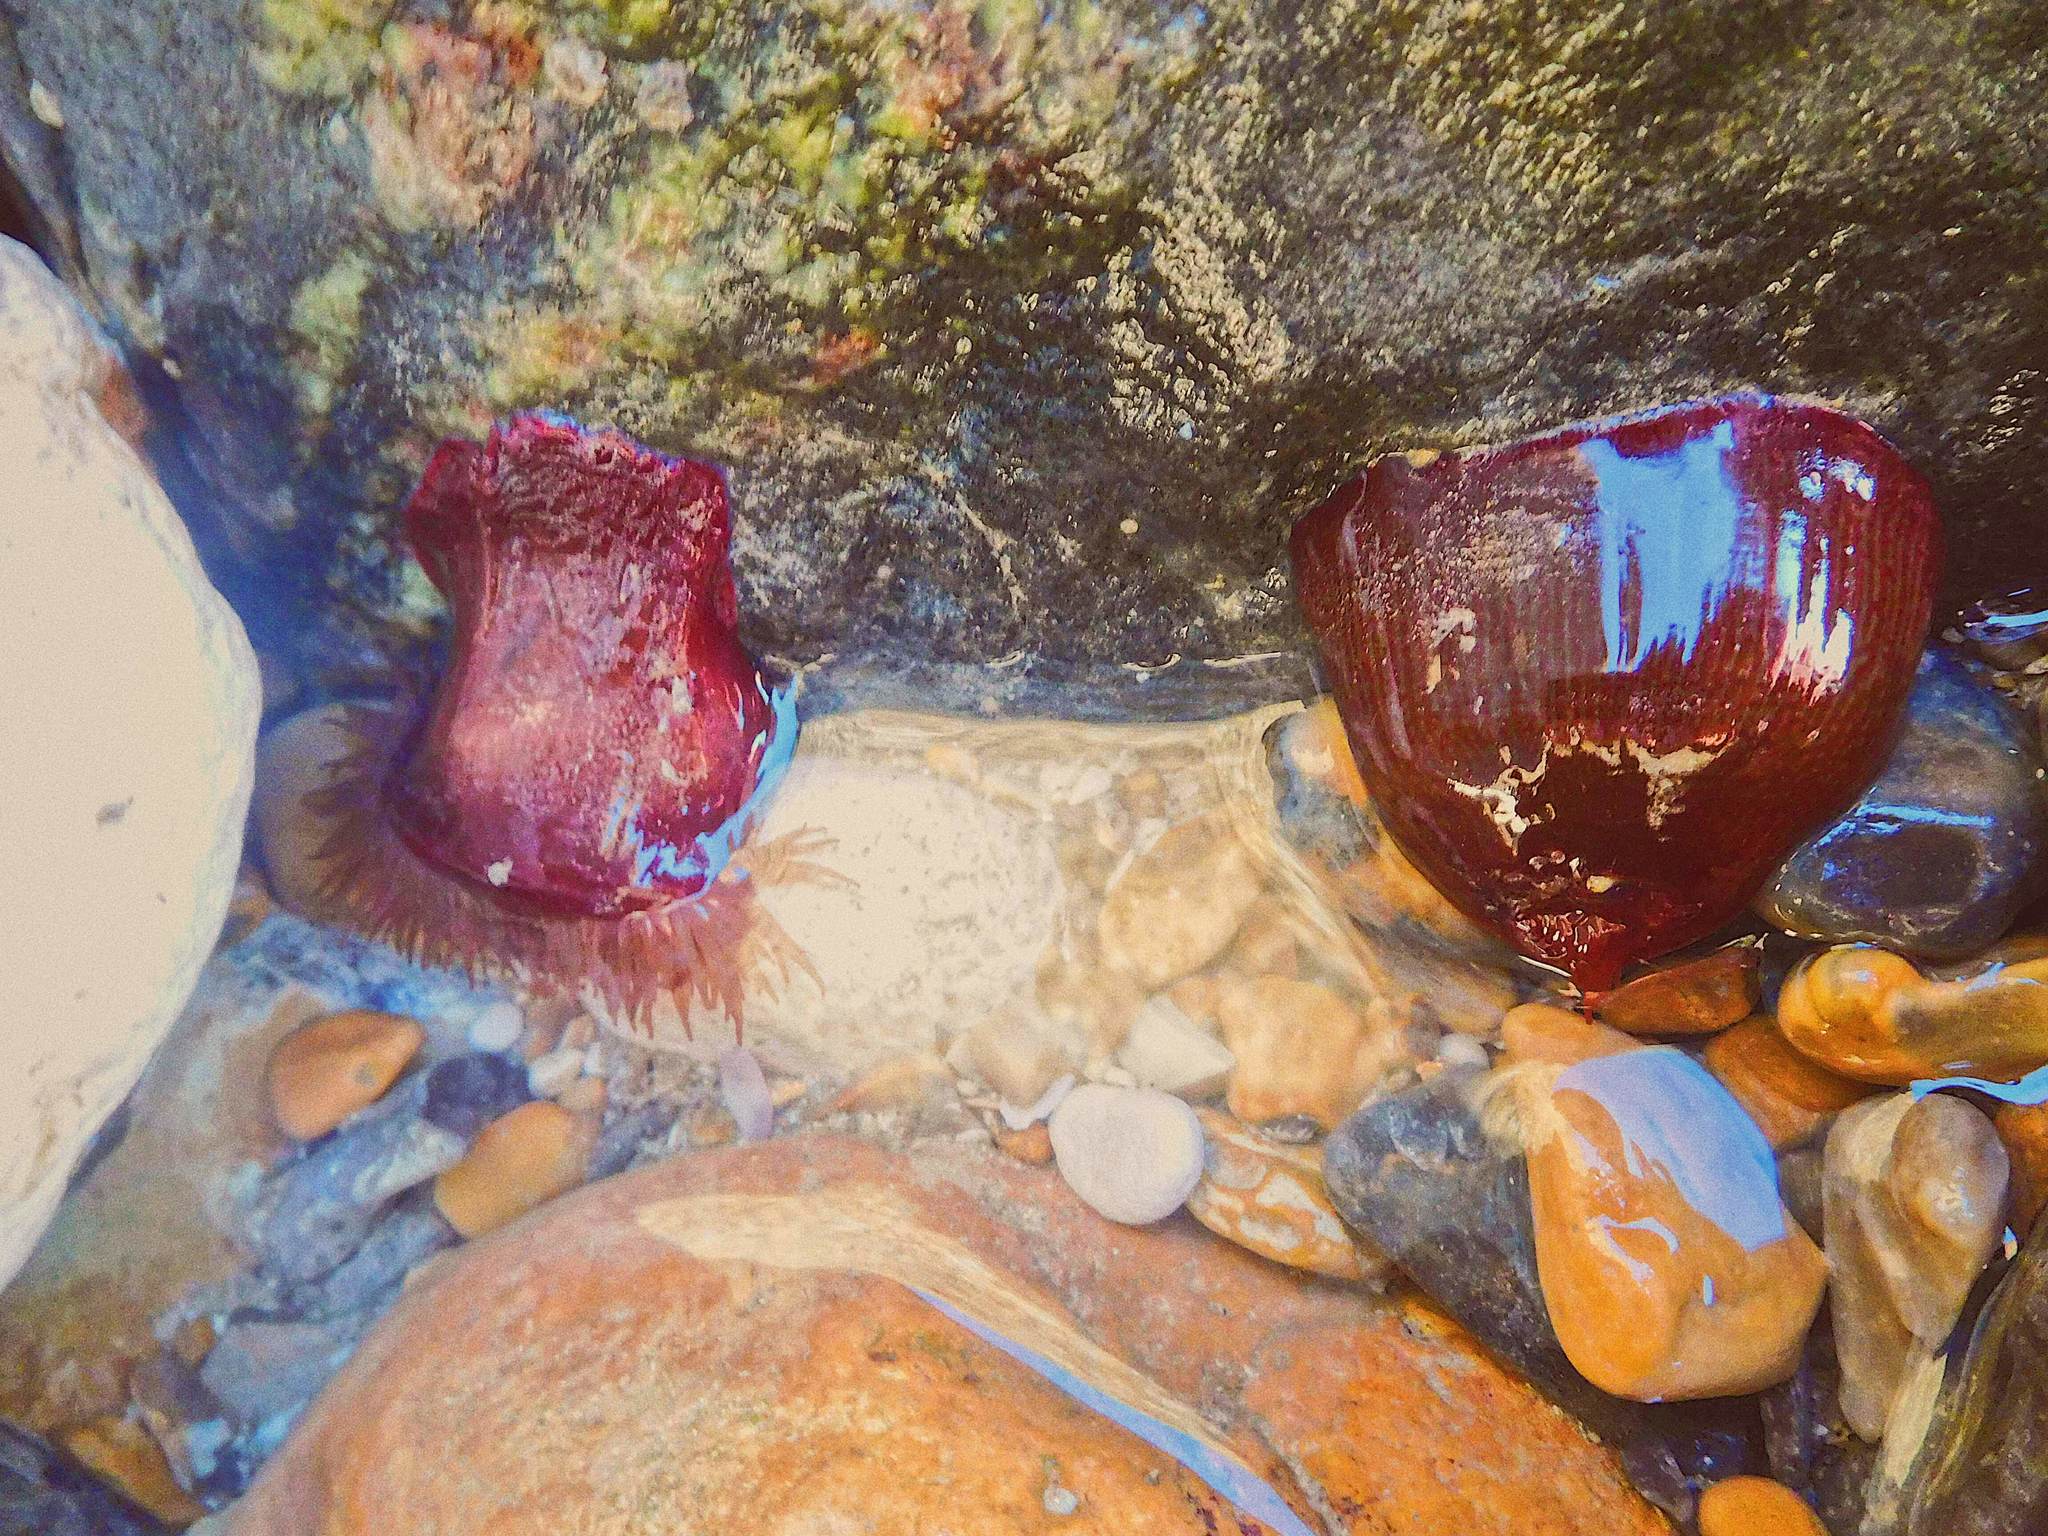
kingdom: Animalia
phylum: Cnidaria
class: Anthozoa
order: Actiniaria
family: Actiniidae
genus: Actinia
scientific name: Actinia equina
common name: Beadlet anemone
